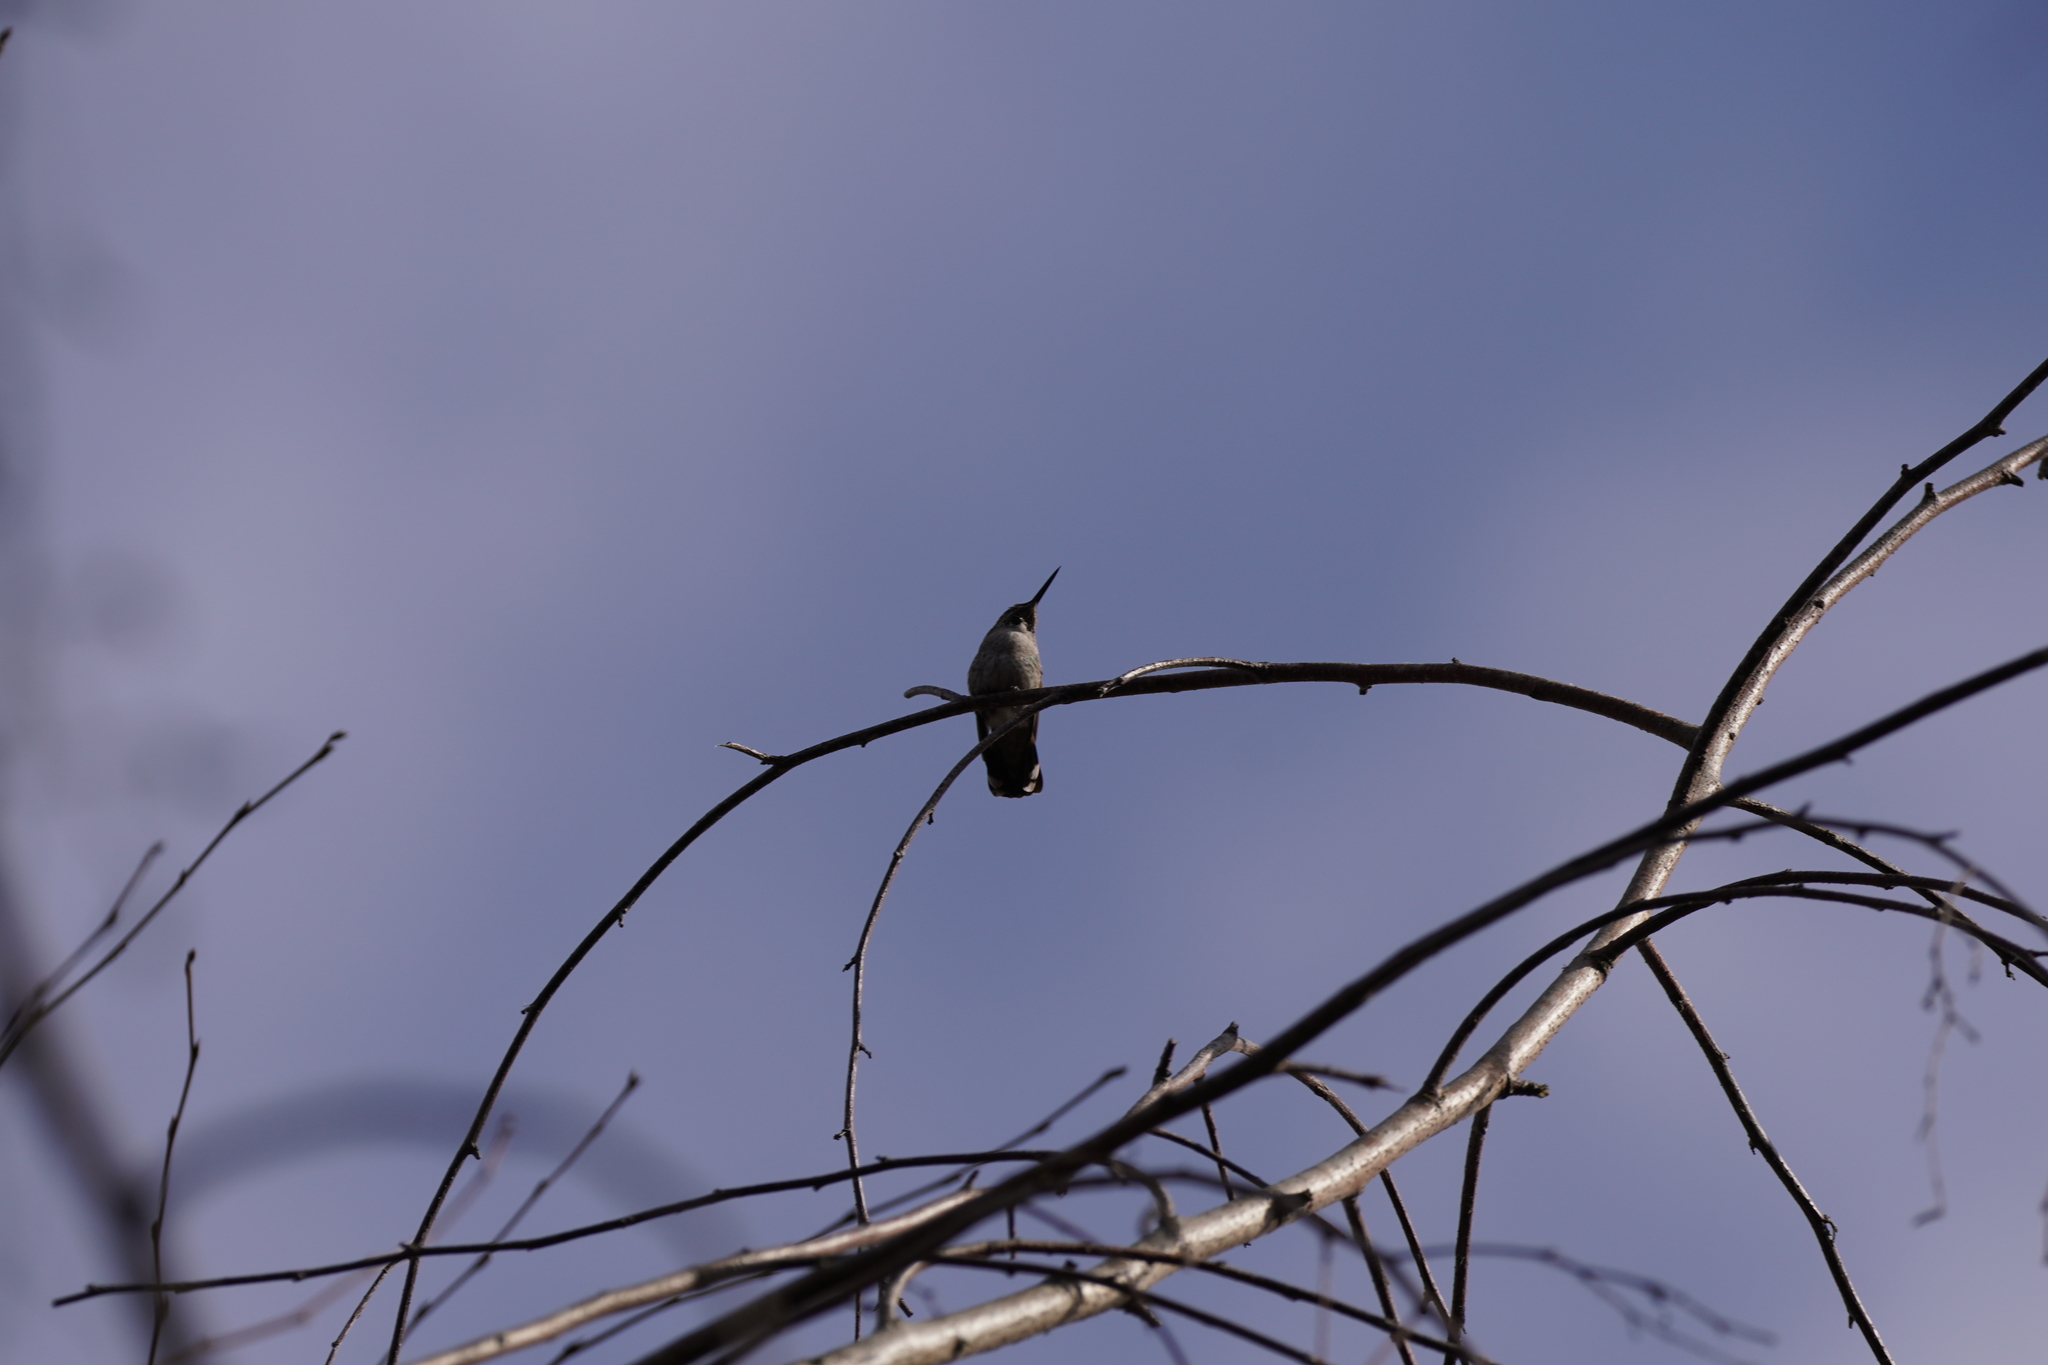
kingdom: Animalia
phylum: Chordata
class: Aves
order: Apodiformes
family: Trochilidae
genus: Calypte
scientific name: Calypte anna
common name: Anna's hummingbird
